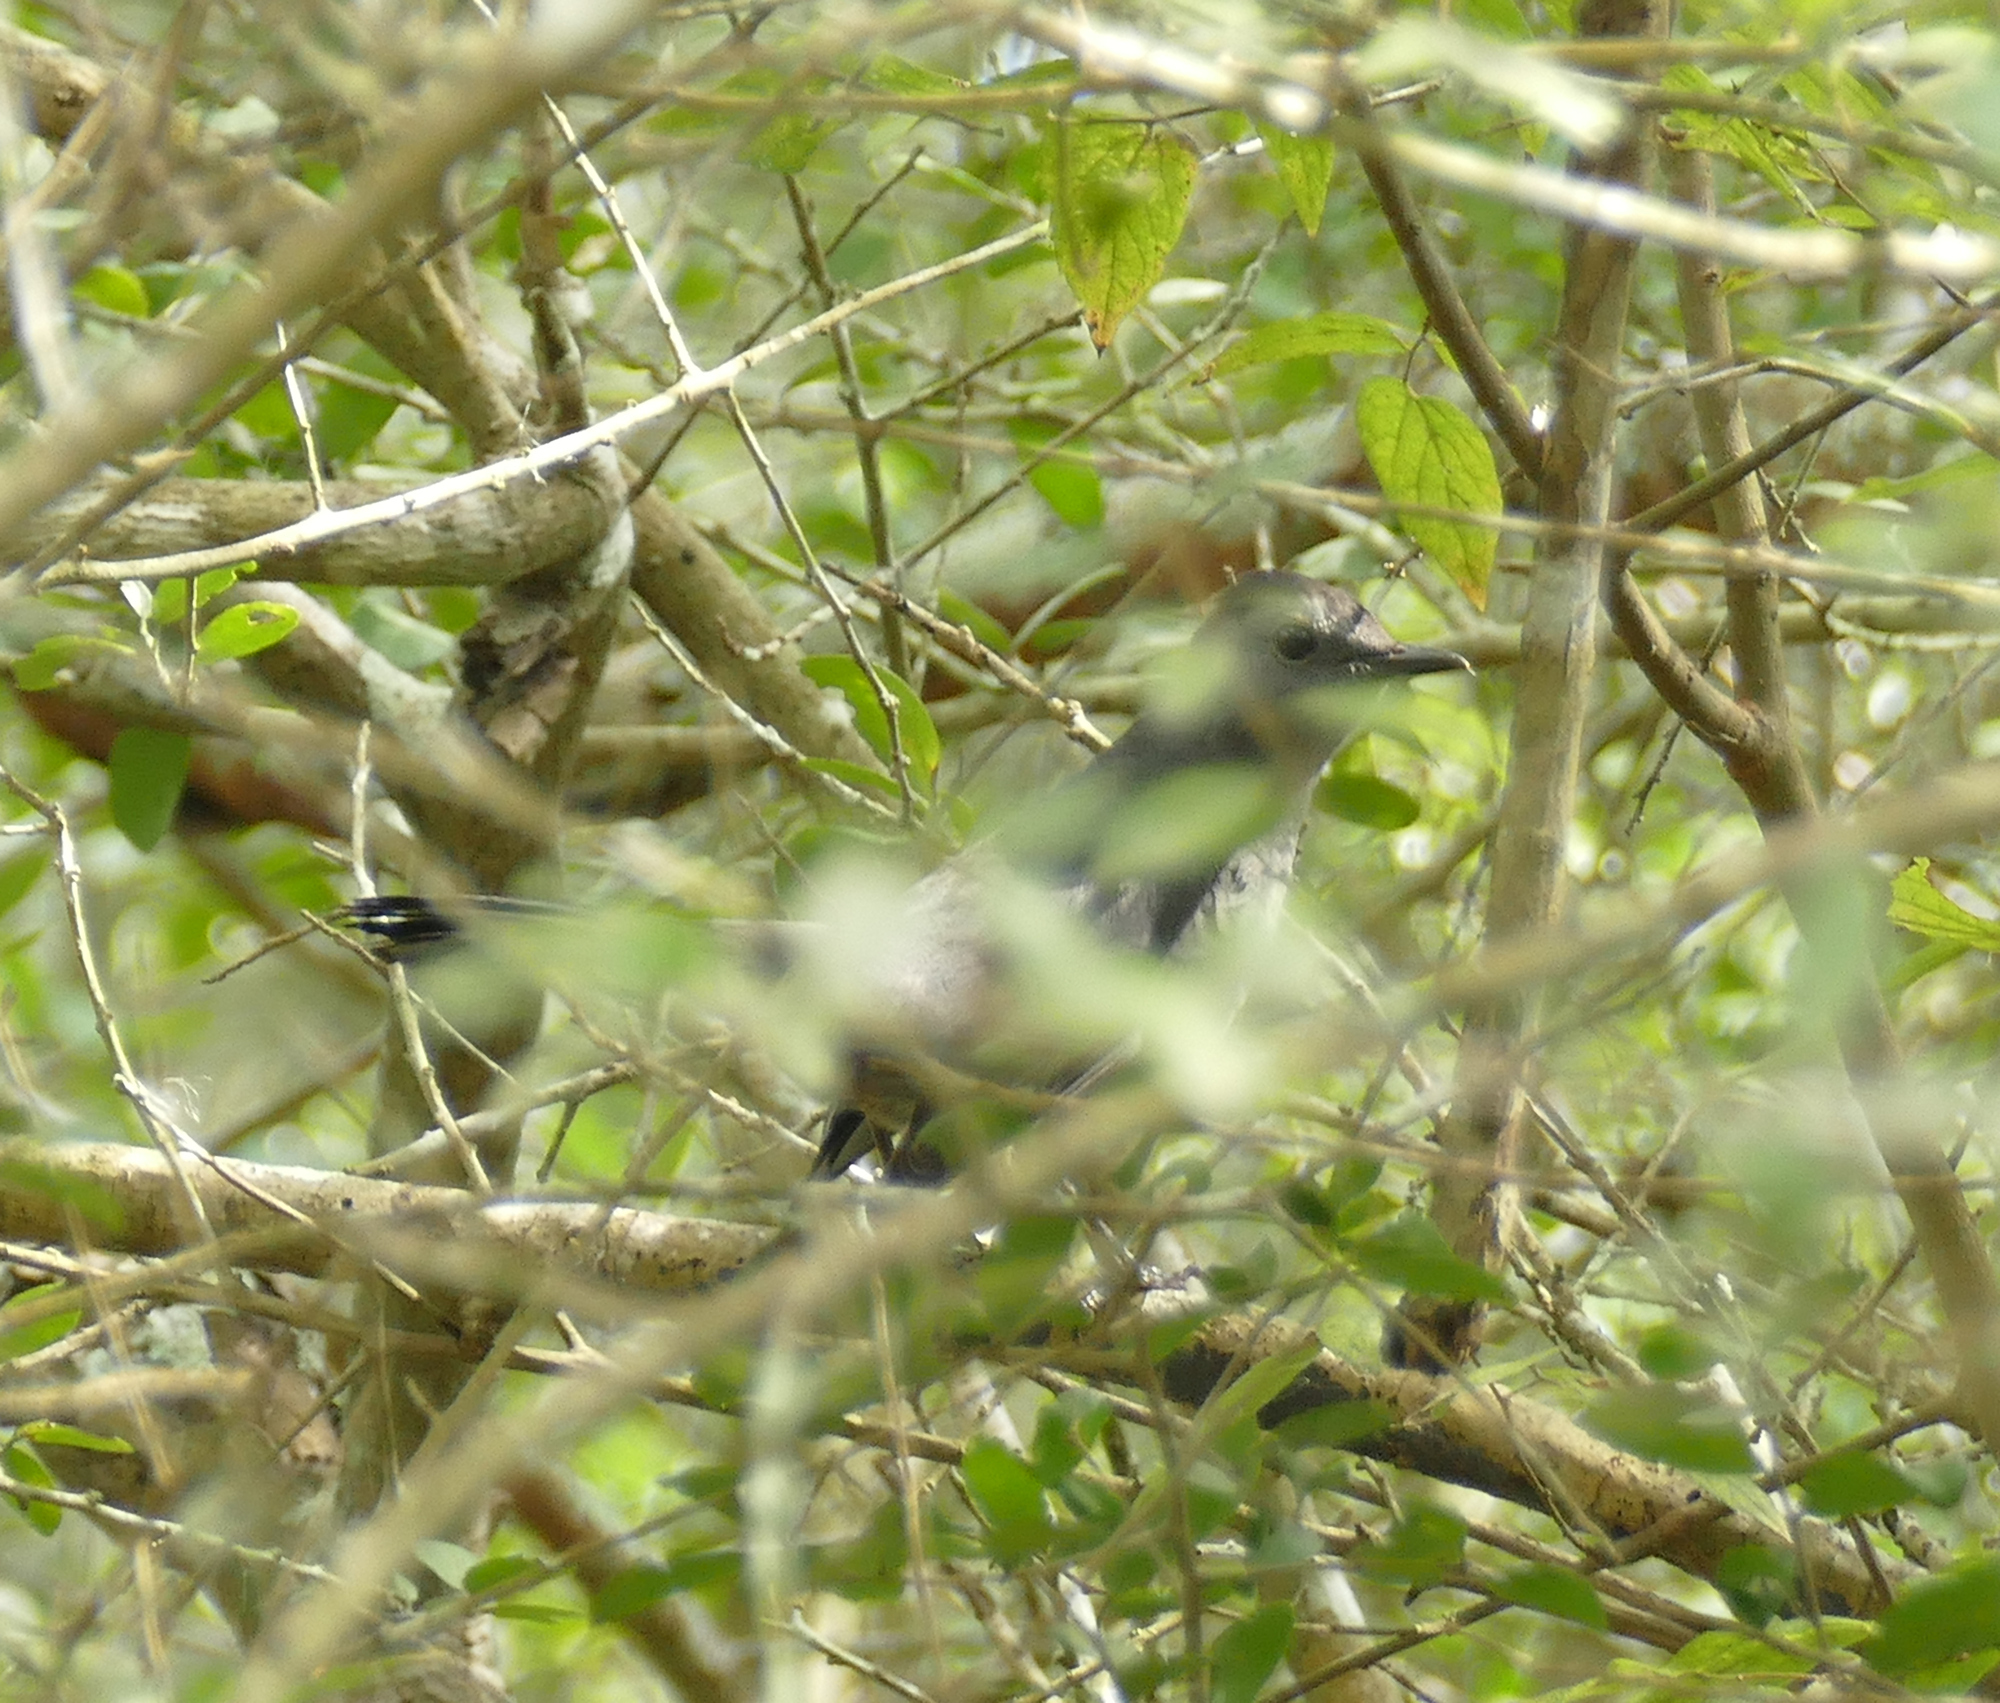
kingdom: Animalia
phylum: Chordata
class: Aves
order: Passeriformes
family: Mimidae
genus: Dumetella
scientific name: Dumetella carolinensis
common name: Gray catbird
